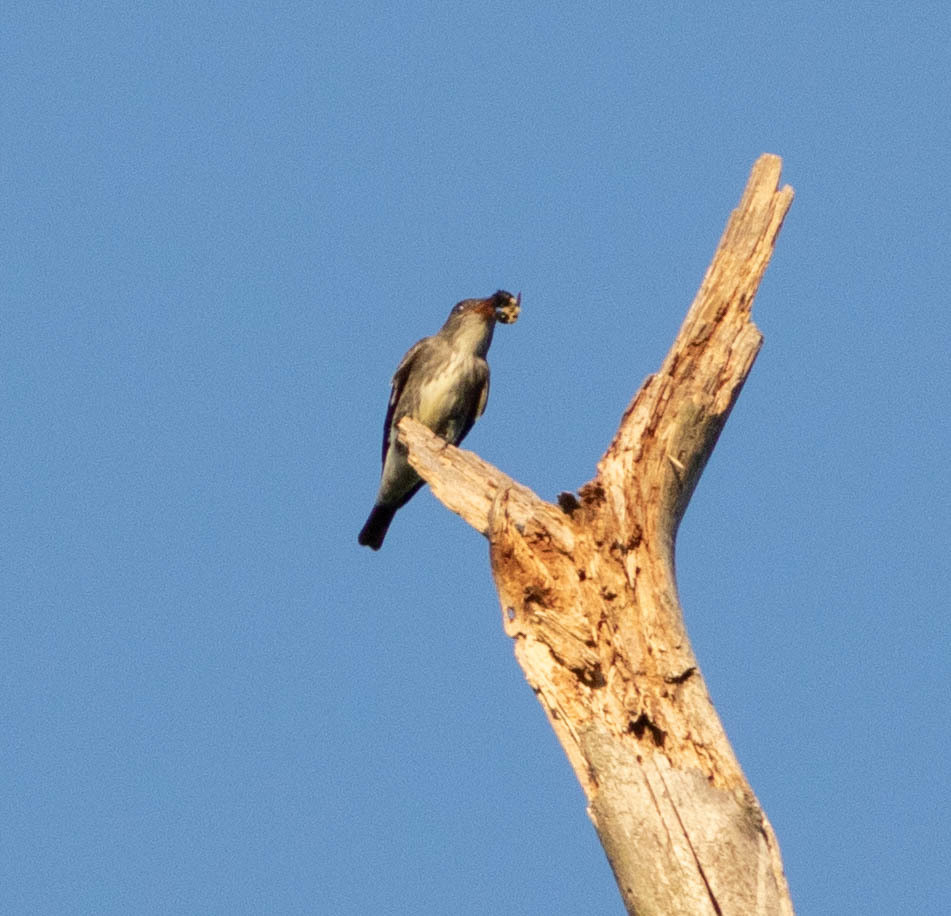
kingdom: Animalia
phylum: Chordata
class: Aves
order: Passeriformes
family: Tyrannidae
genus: Contopus
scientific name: Contopus cooperi
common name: Olive-sided flycatcher
